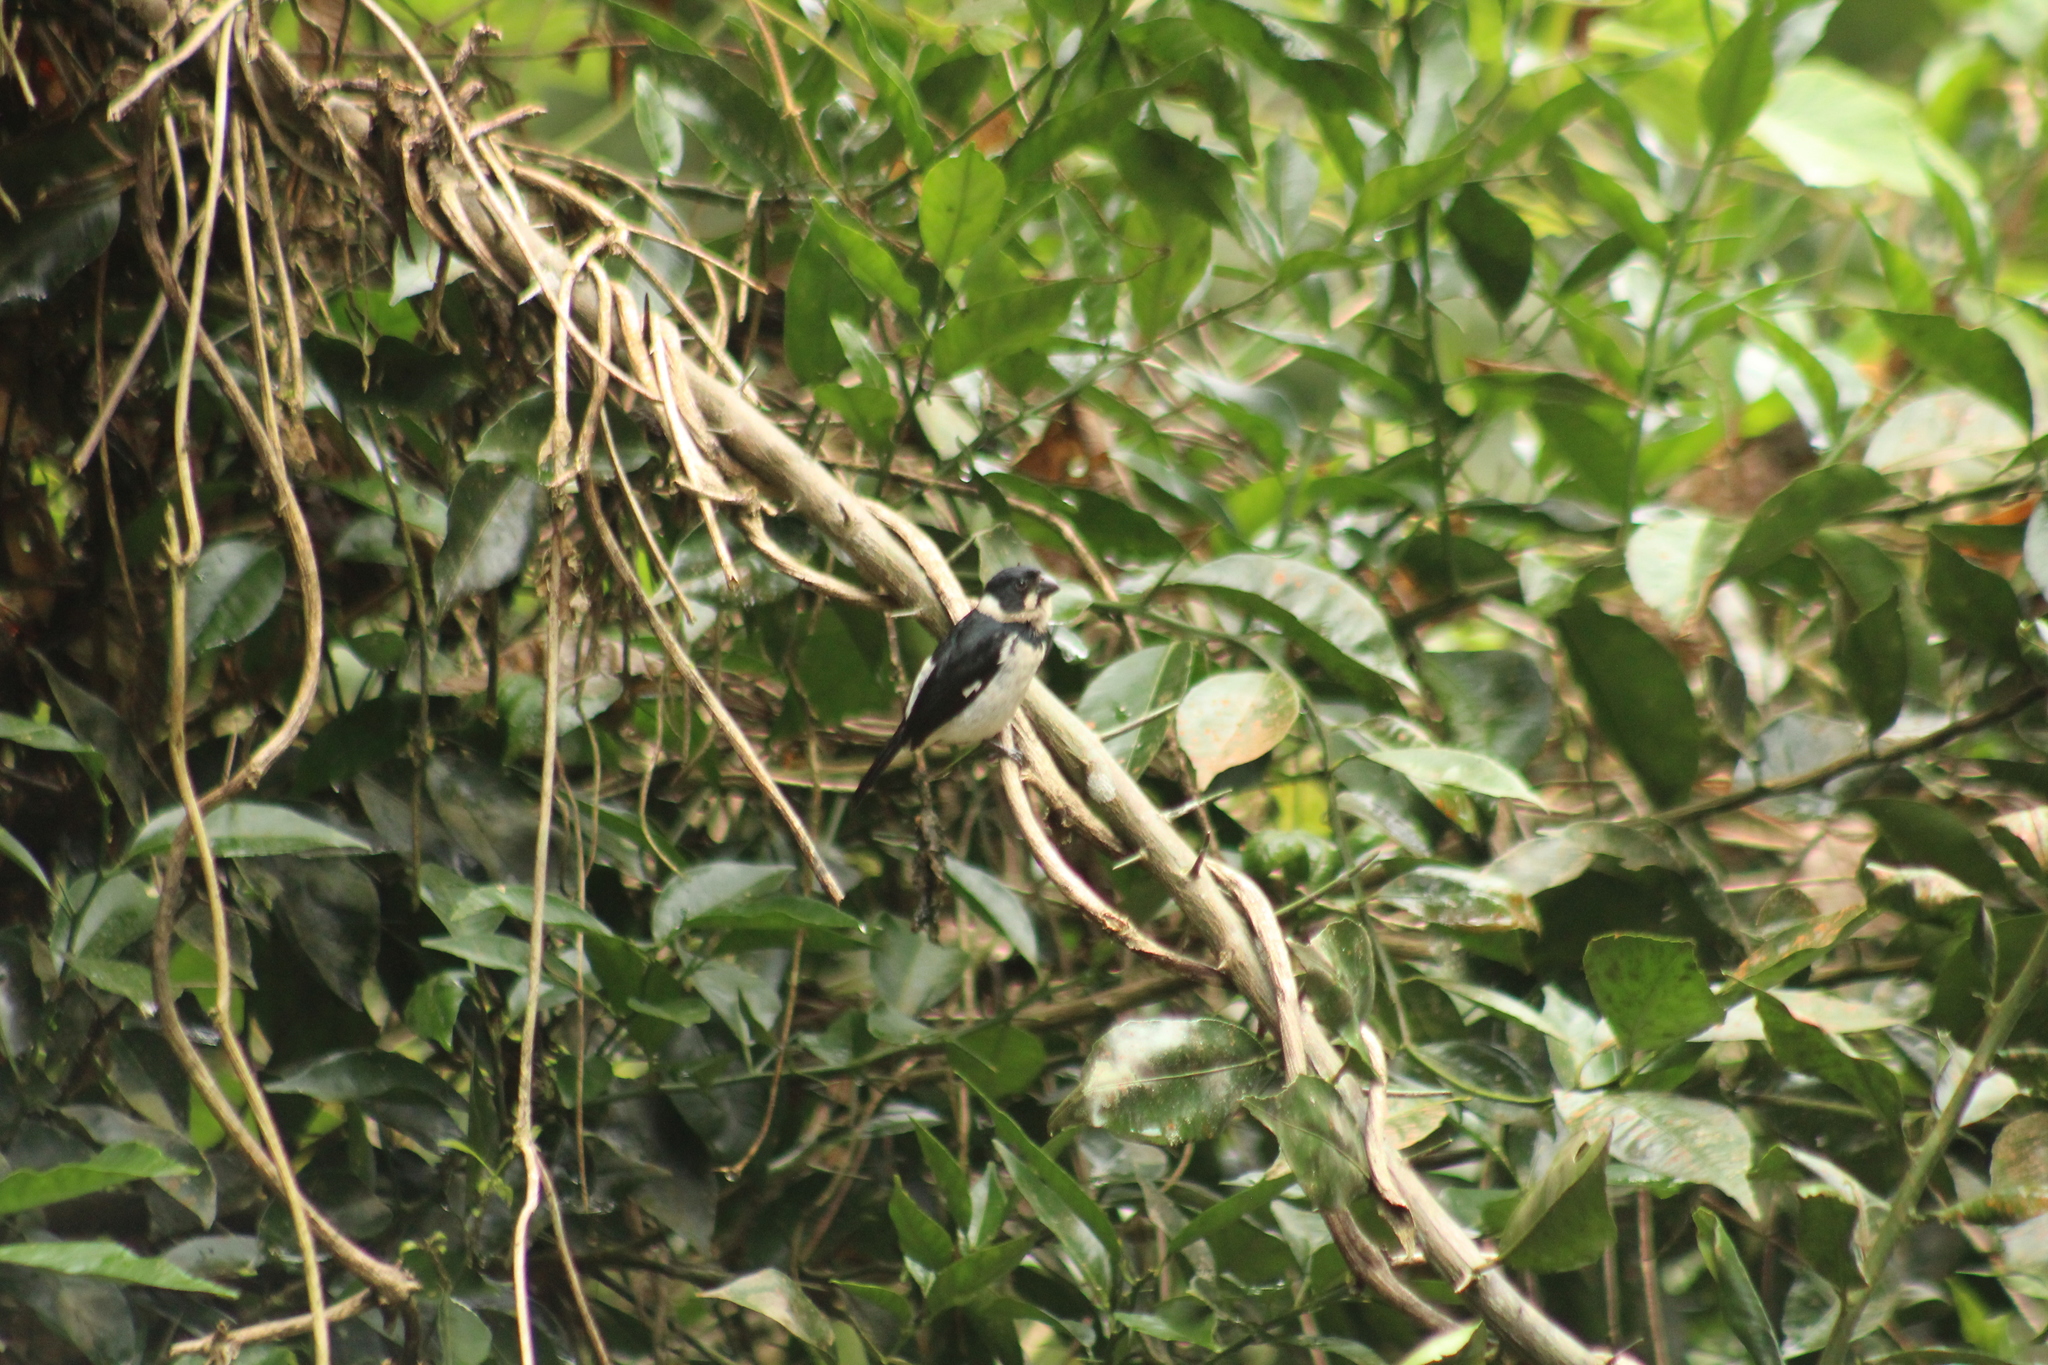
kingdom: Animalia
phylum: Chordata
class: Aves
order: Passeriformes
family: Thraupidae
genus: Sporophila
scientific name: Sporophila corvina
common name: Variable seedeater
